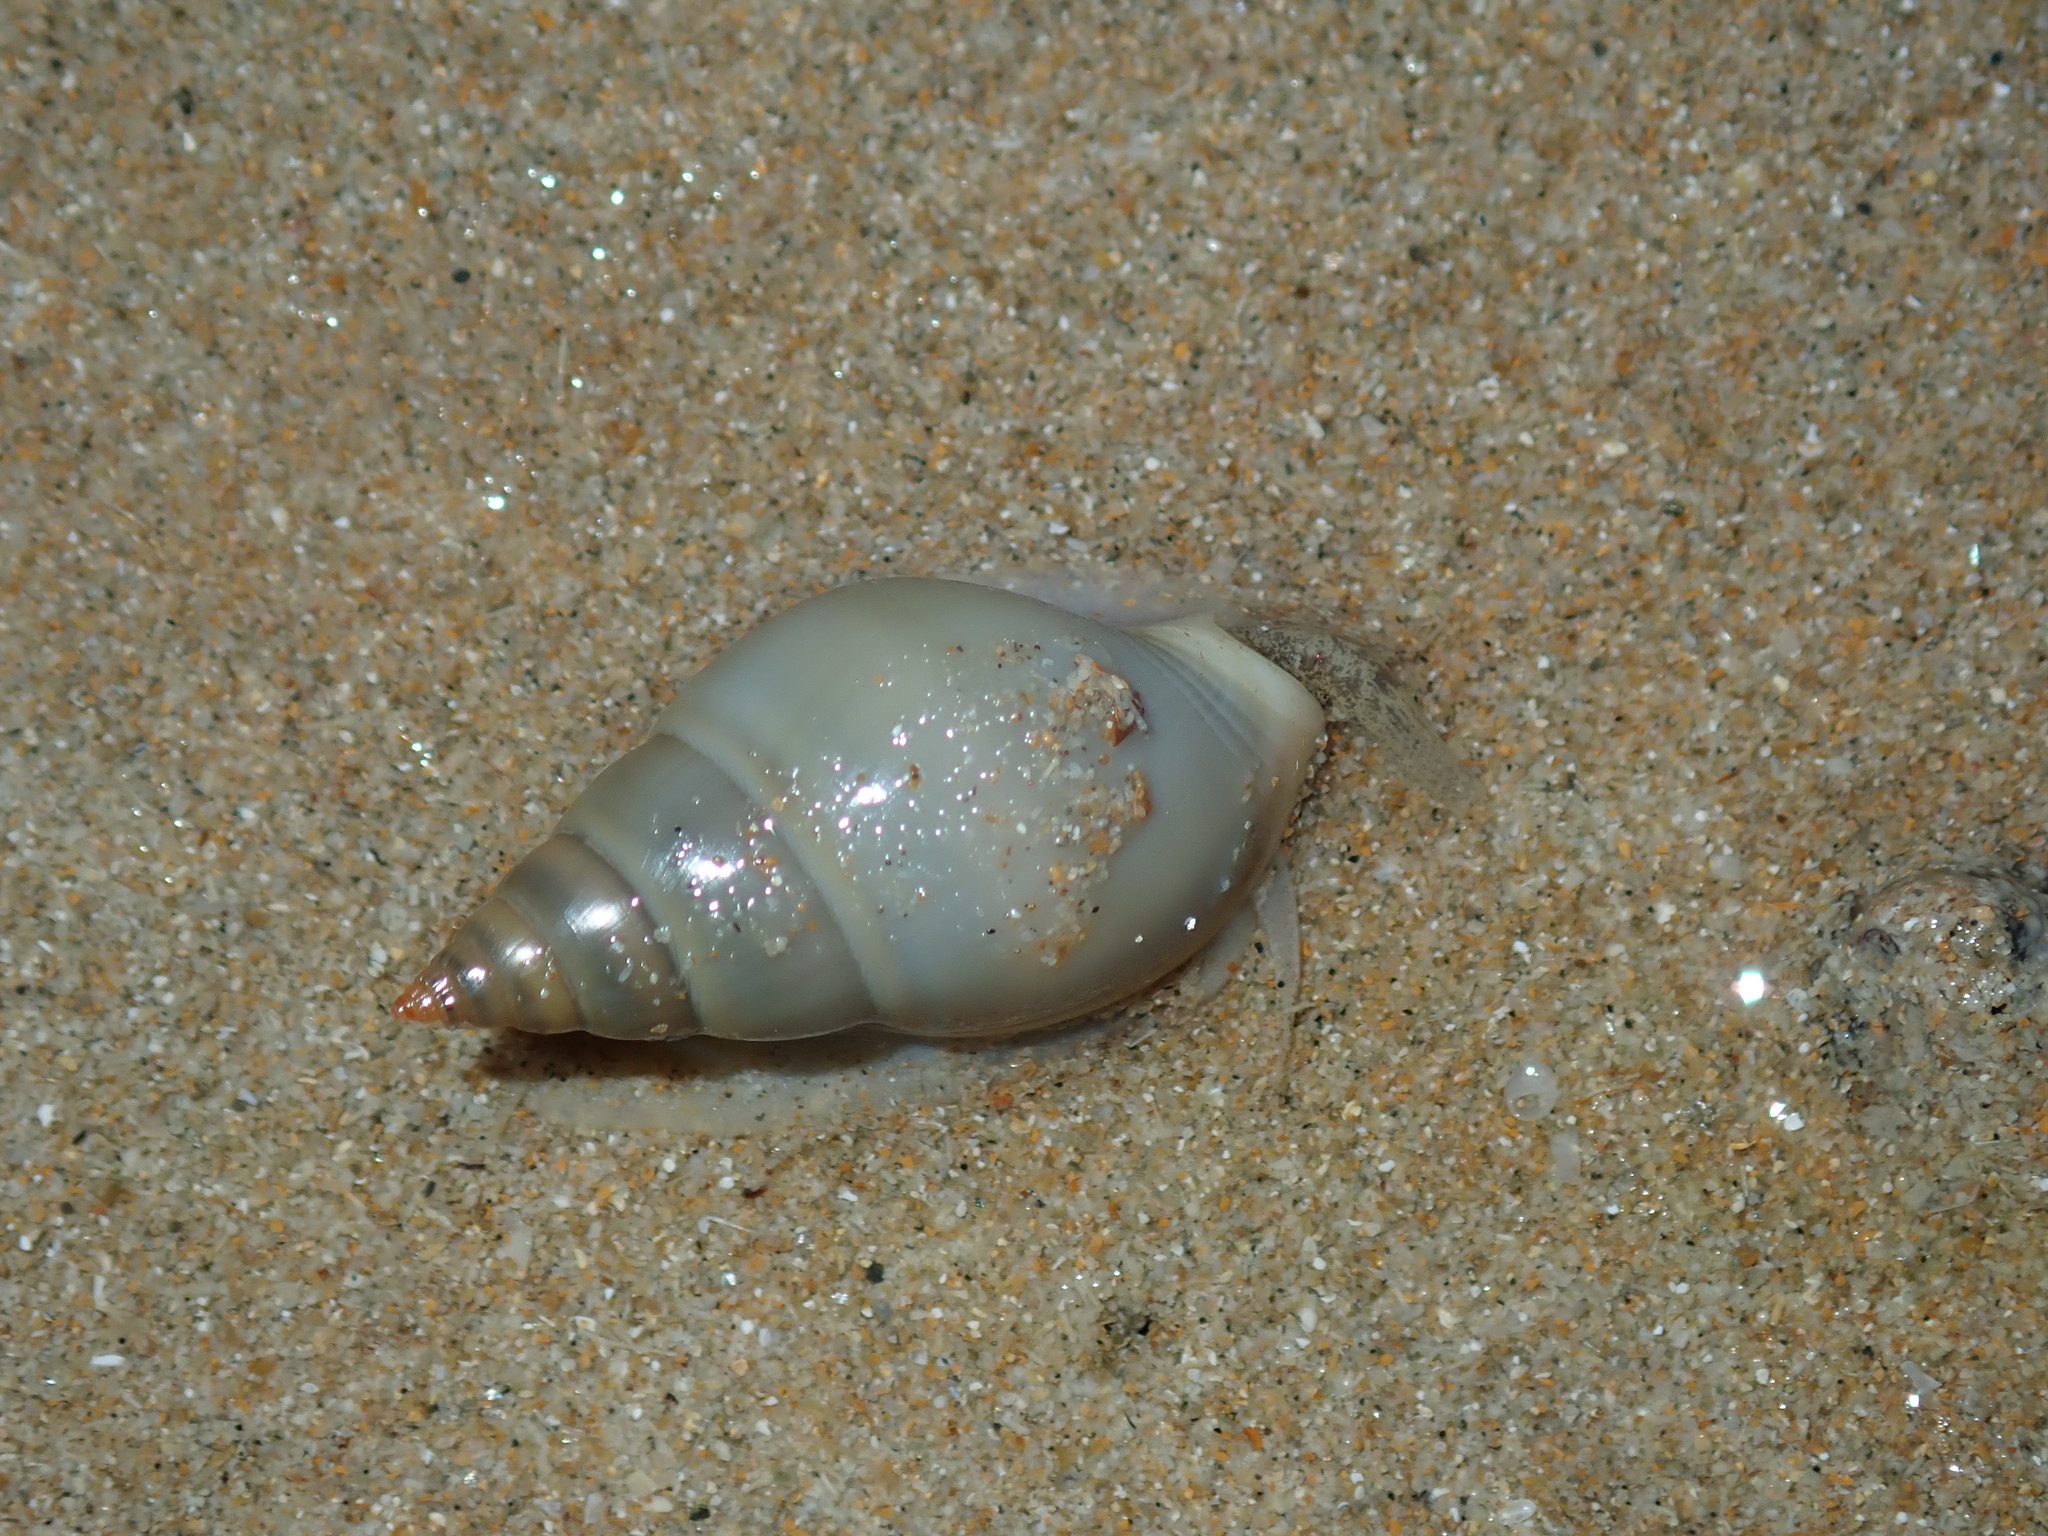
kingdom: Animalia
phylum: Mollusca
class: Gastropoda
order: Neogastropoda
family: Nassariidae
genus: Nassarius
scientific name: Nassarius dorsatus
